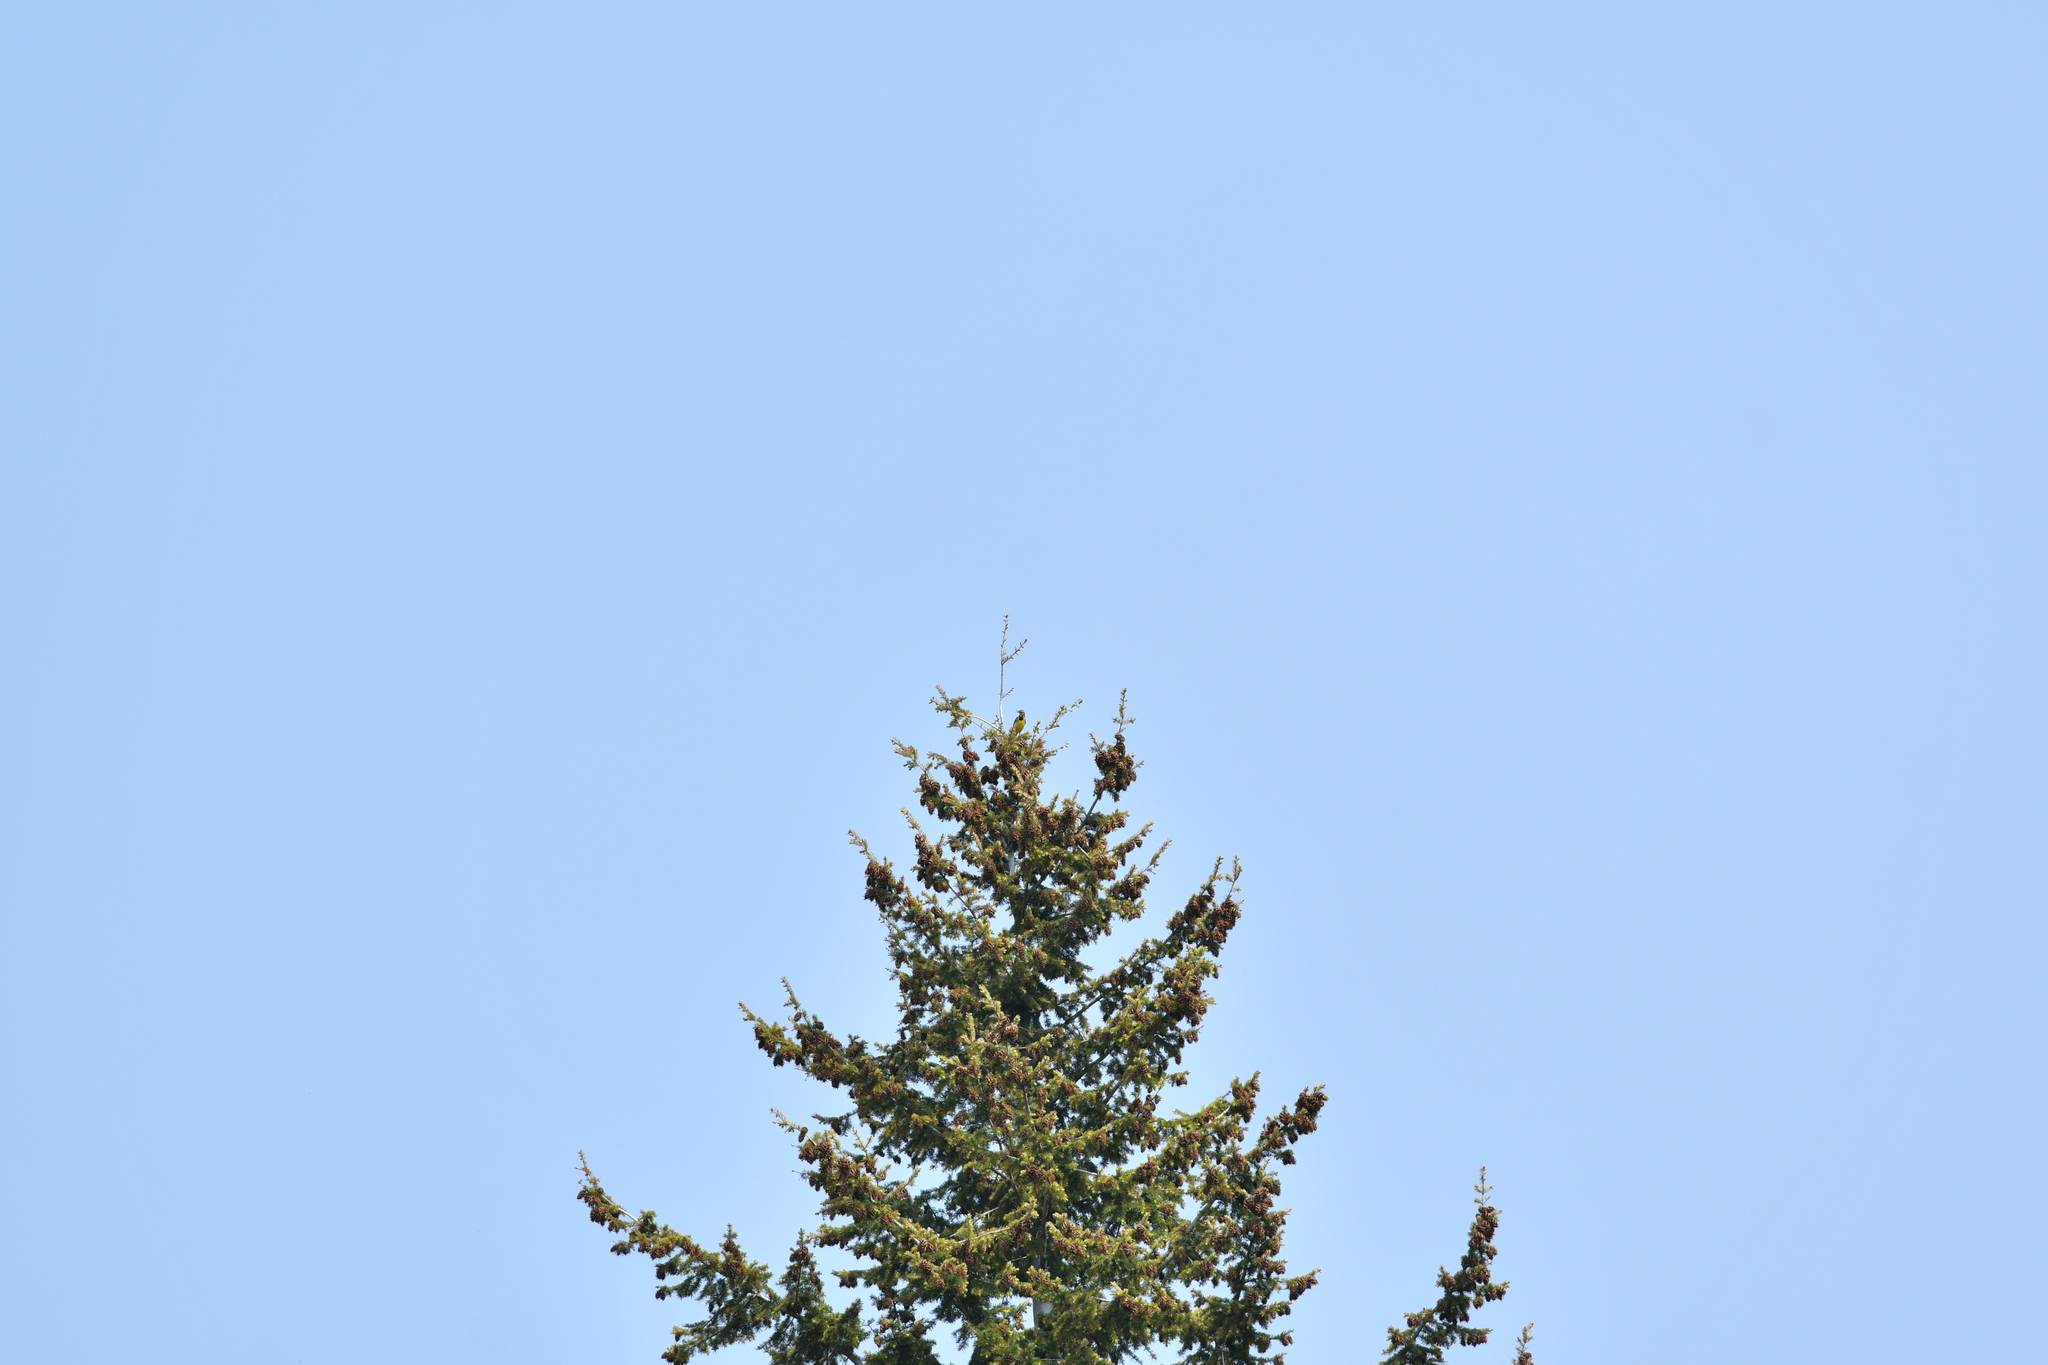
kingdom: Plantae
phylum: Tracheophyta
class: Pinopsida
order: Pinales
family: Pinaceae
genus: Pseudotsuga
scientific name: Pseudotsuga menziesii
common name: Douglas fir
